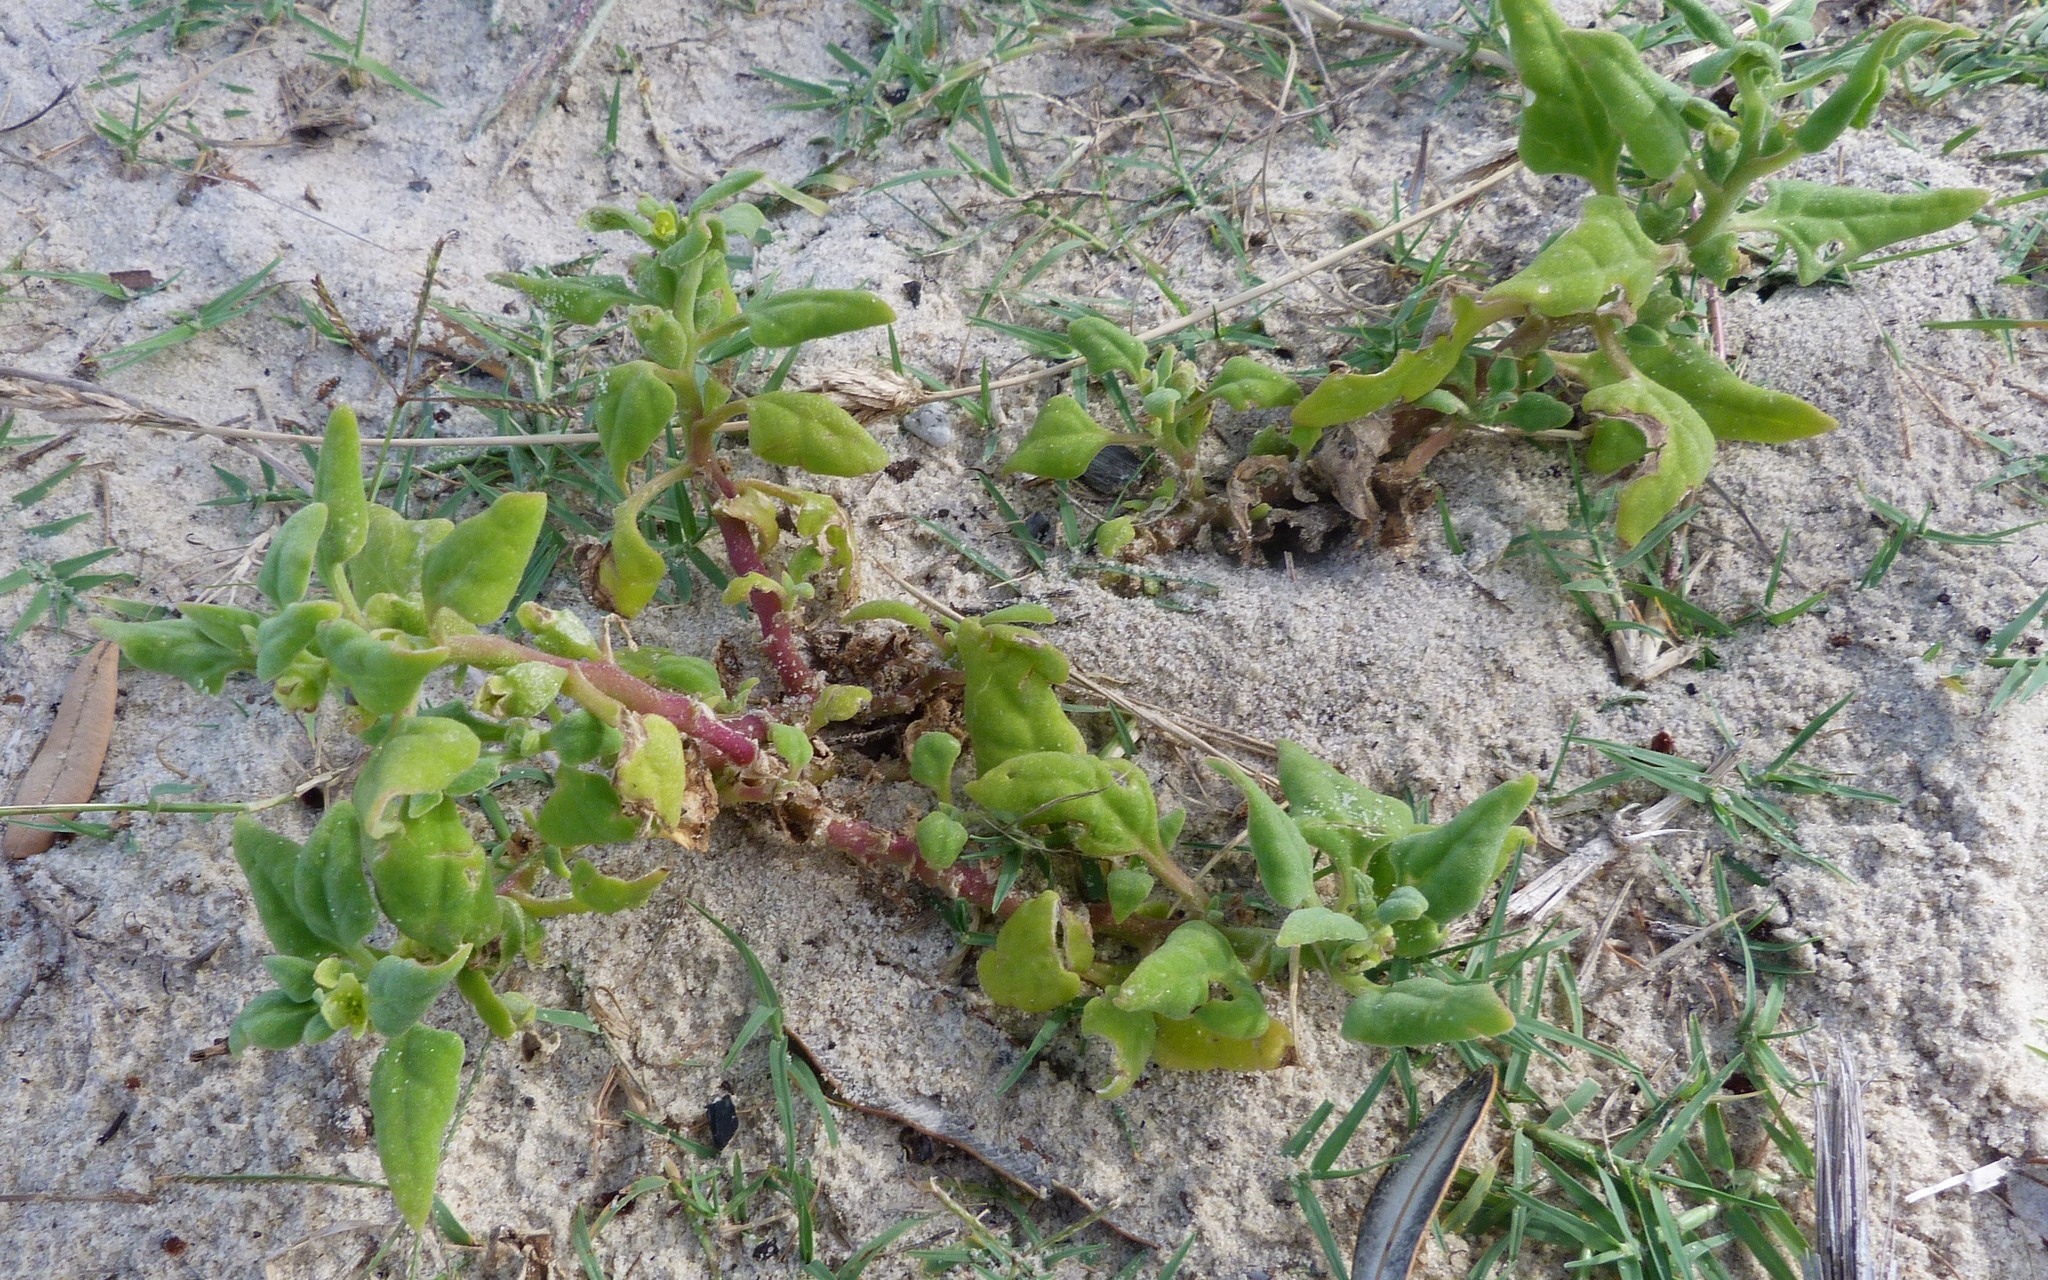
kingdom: Plantae
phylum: Tracheophyta
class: Magnoliopsida
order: Caryophyllales
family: Aizoaceae
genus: Tetragonia
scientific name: Tetragonia tetragonoides
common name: New zealand-spinach
